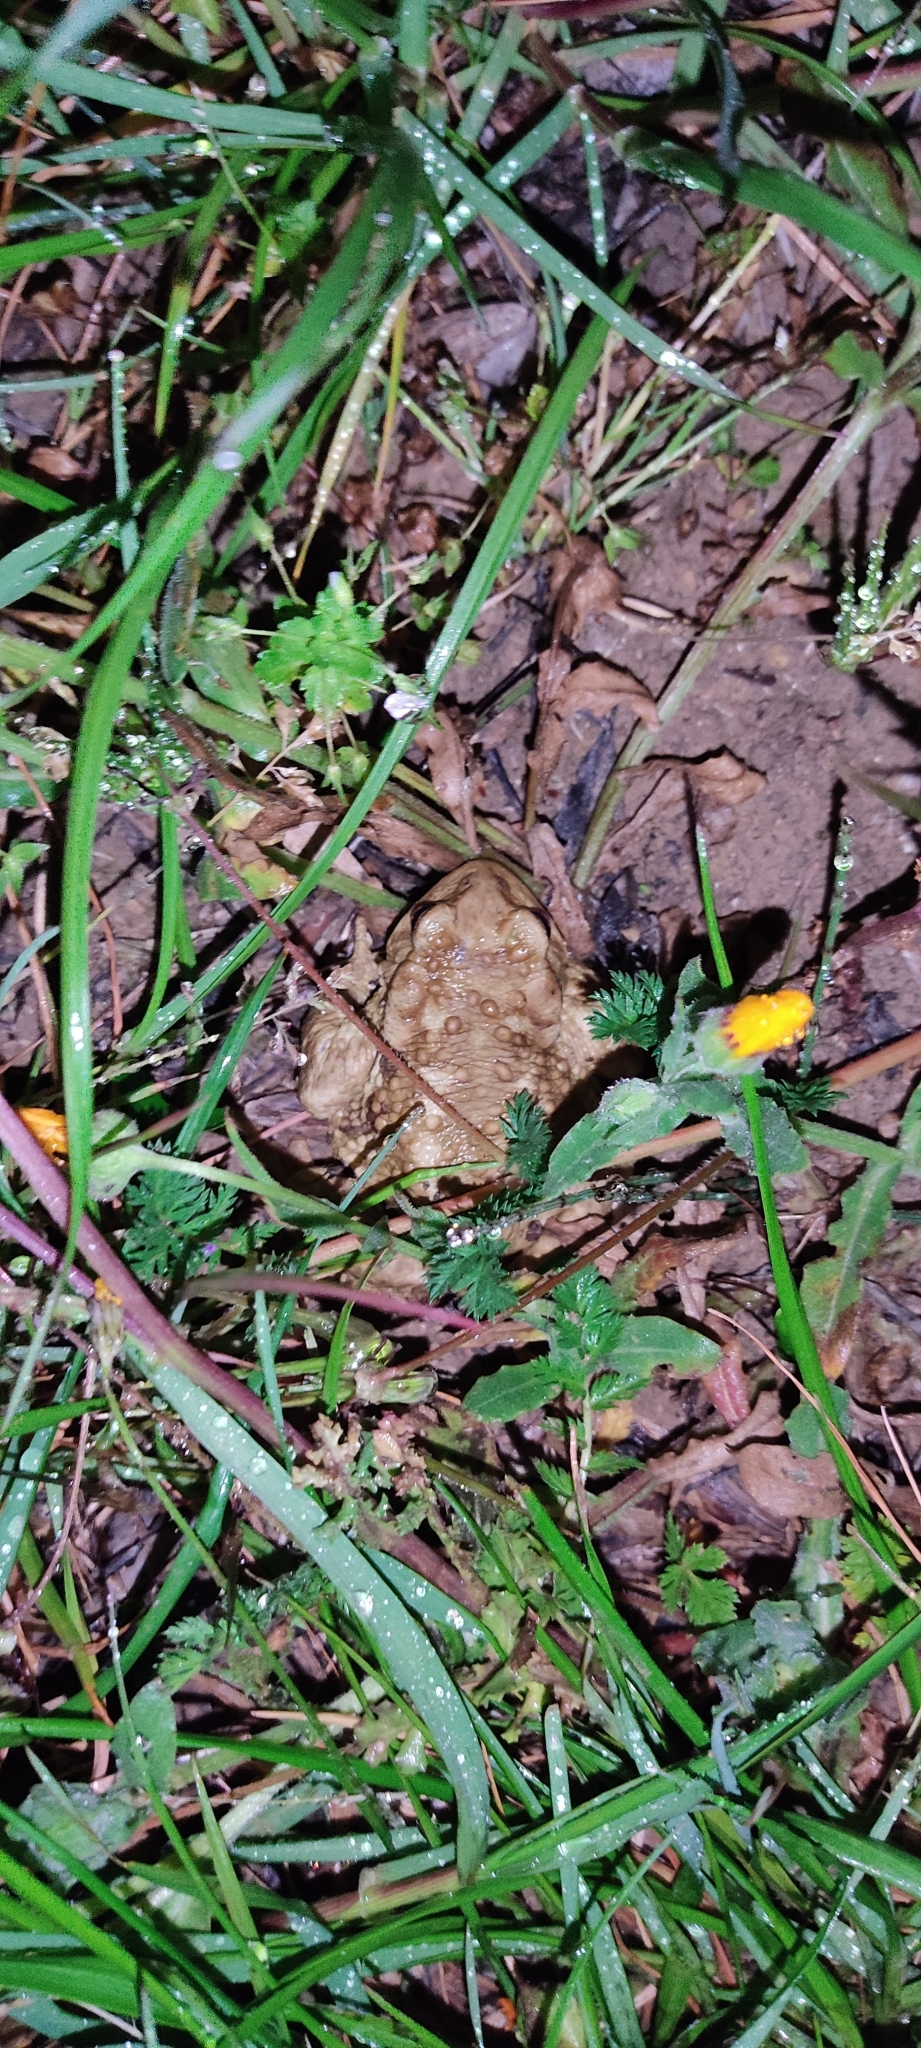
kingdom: Animalia
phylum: Chordata
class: Amphibia
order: Anura
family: Bufonidae
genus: Bufo
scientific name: Bufo spinosus
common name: Western common toad
